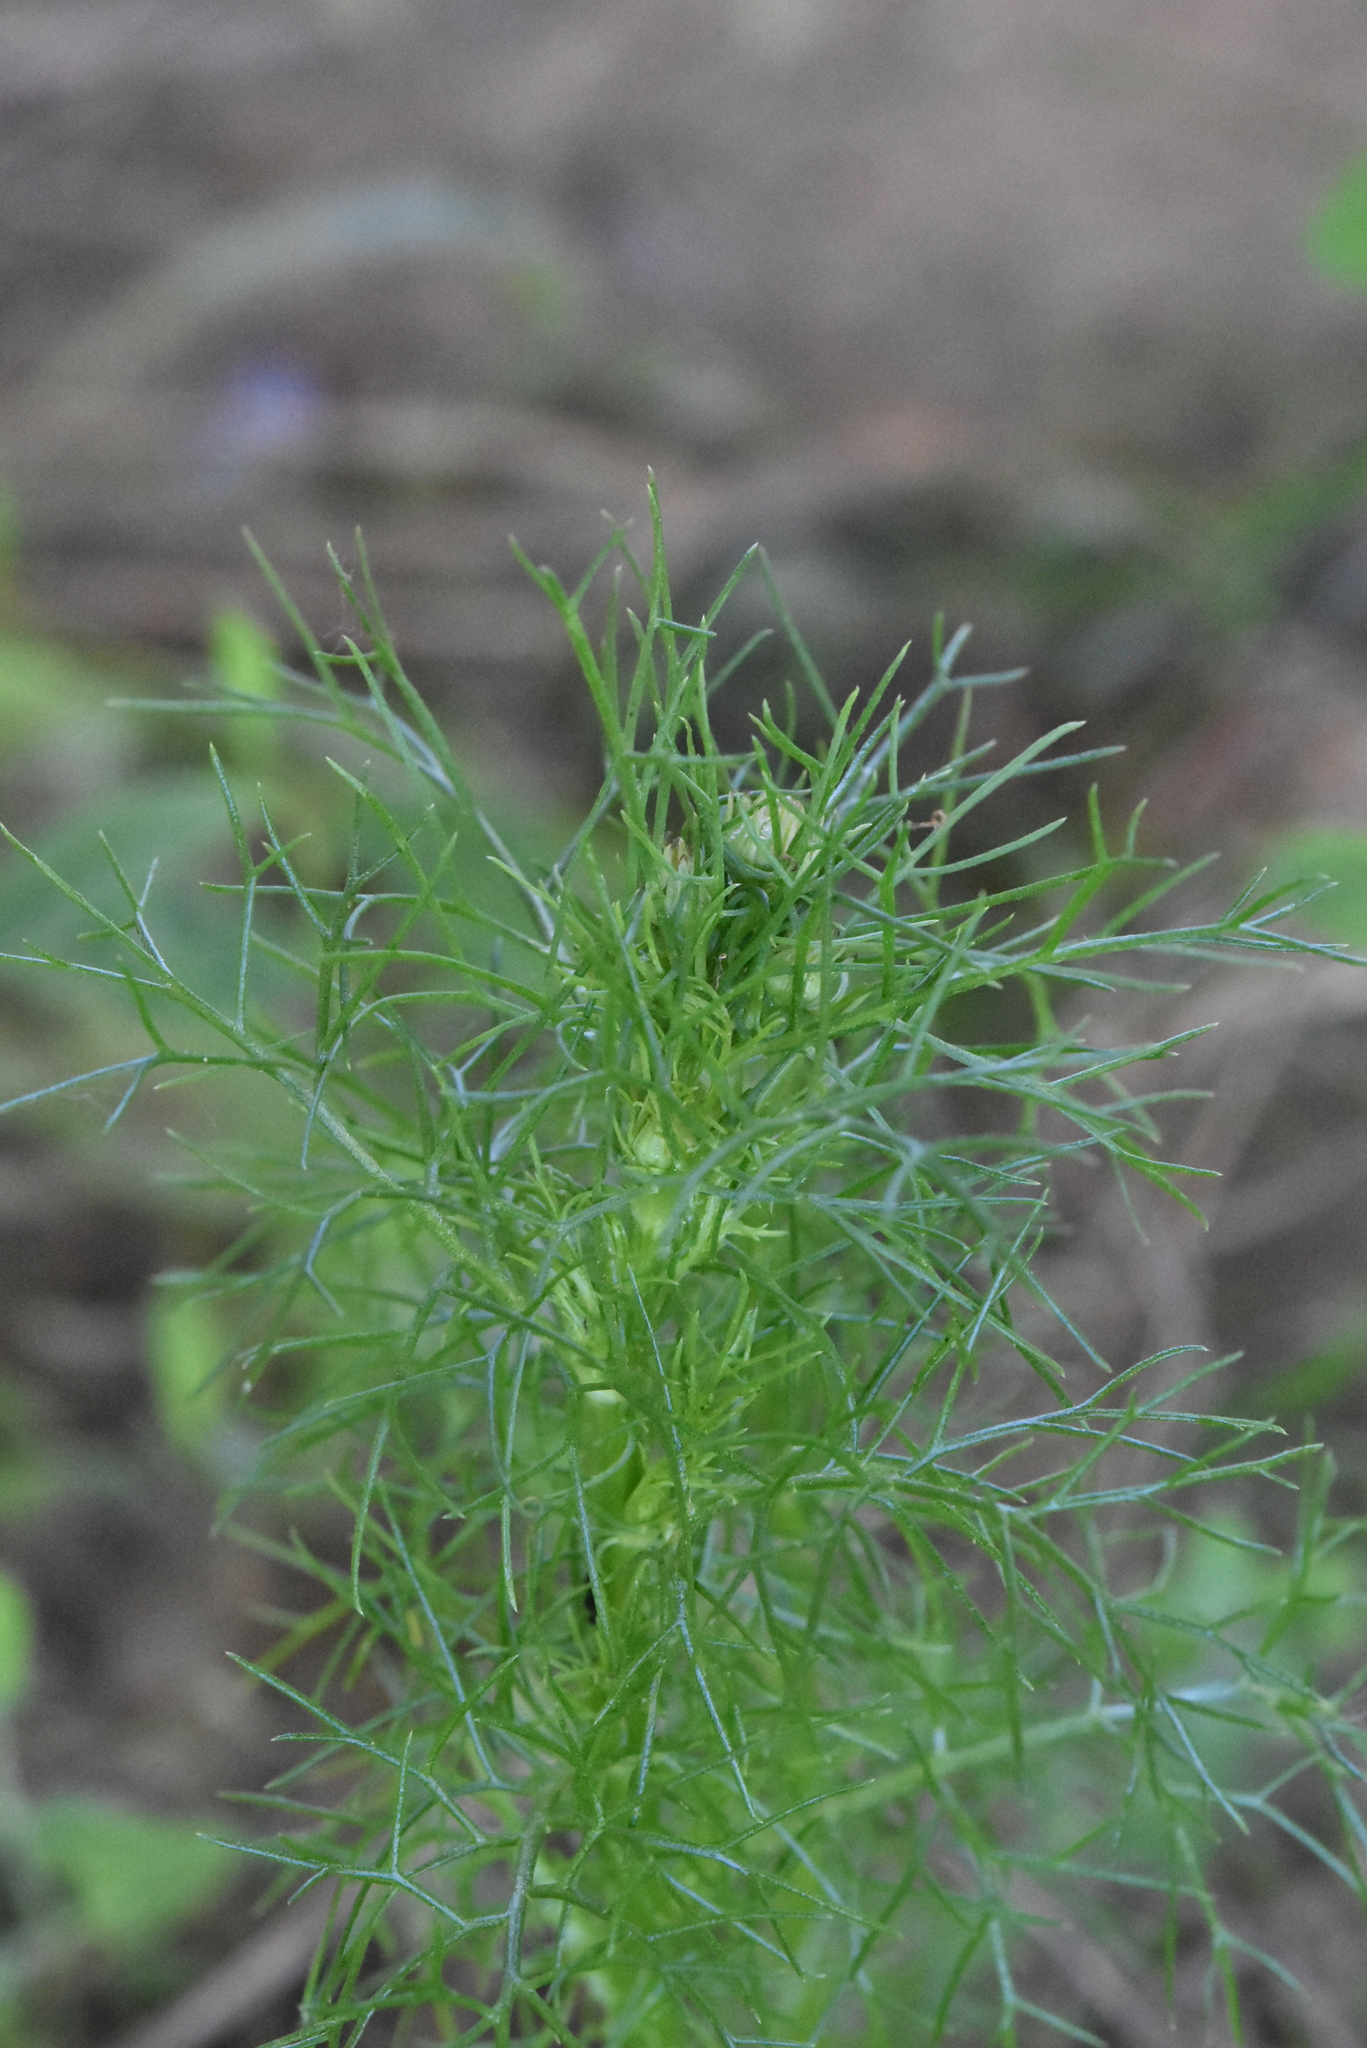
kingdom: Plantae
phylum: Tracheophyta
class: Magnoliopsida
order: Asterales
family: Asteraceae
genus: Tripleurospermum
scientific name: Tripleurospermum inodorum
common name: Scentless mayweed
